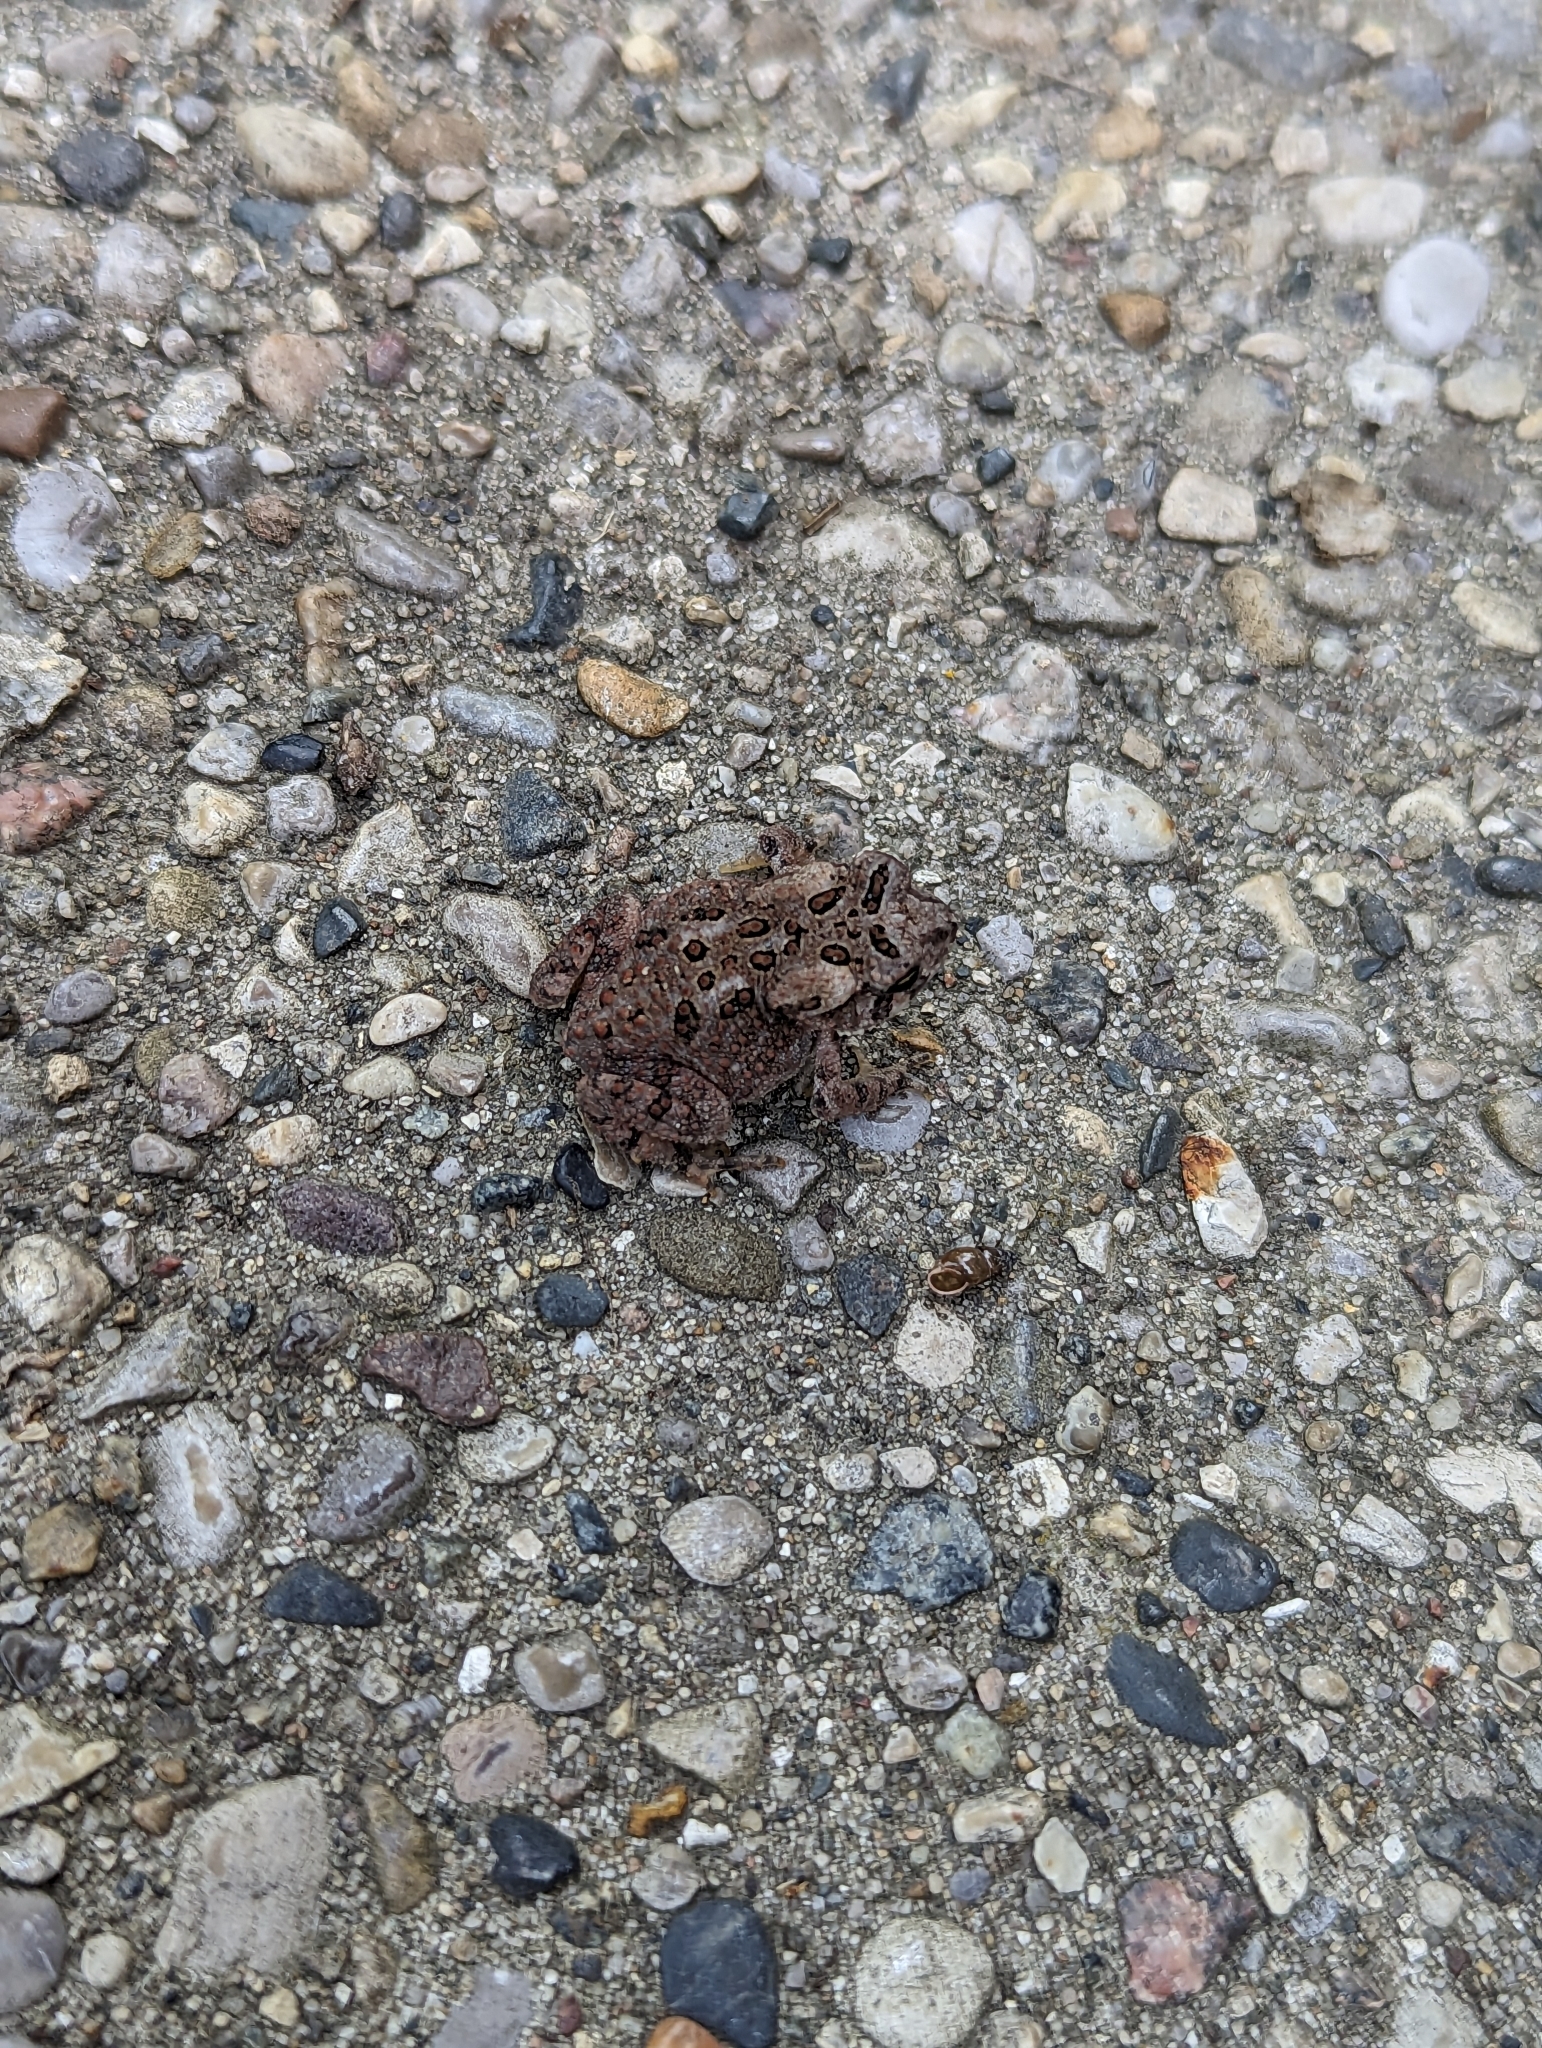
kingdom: Animalia
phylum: Chordata
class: Amphibia
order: Anura
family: Bufonidae
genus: Anaxyrus
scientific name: Anaxyrus americanus
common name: American toad
